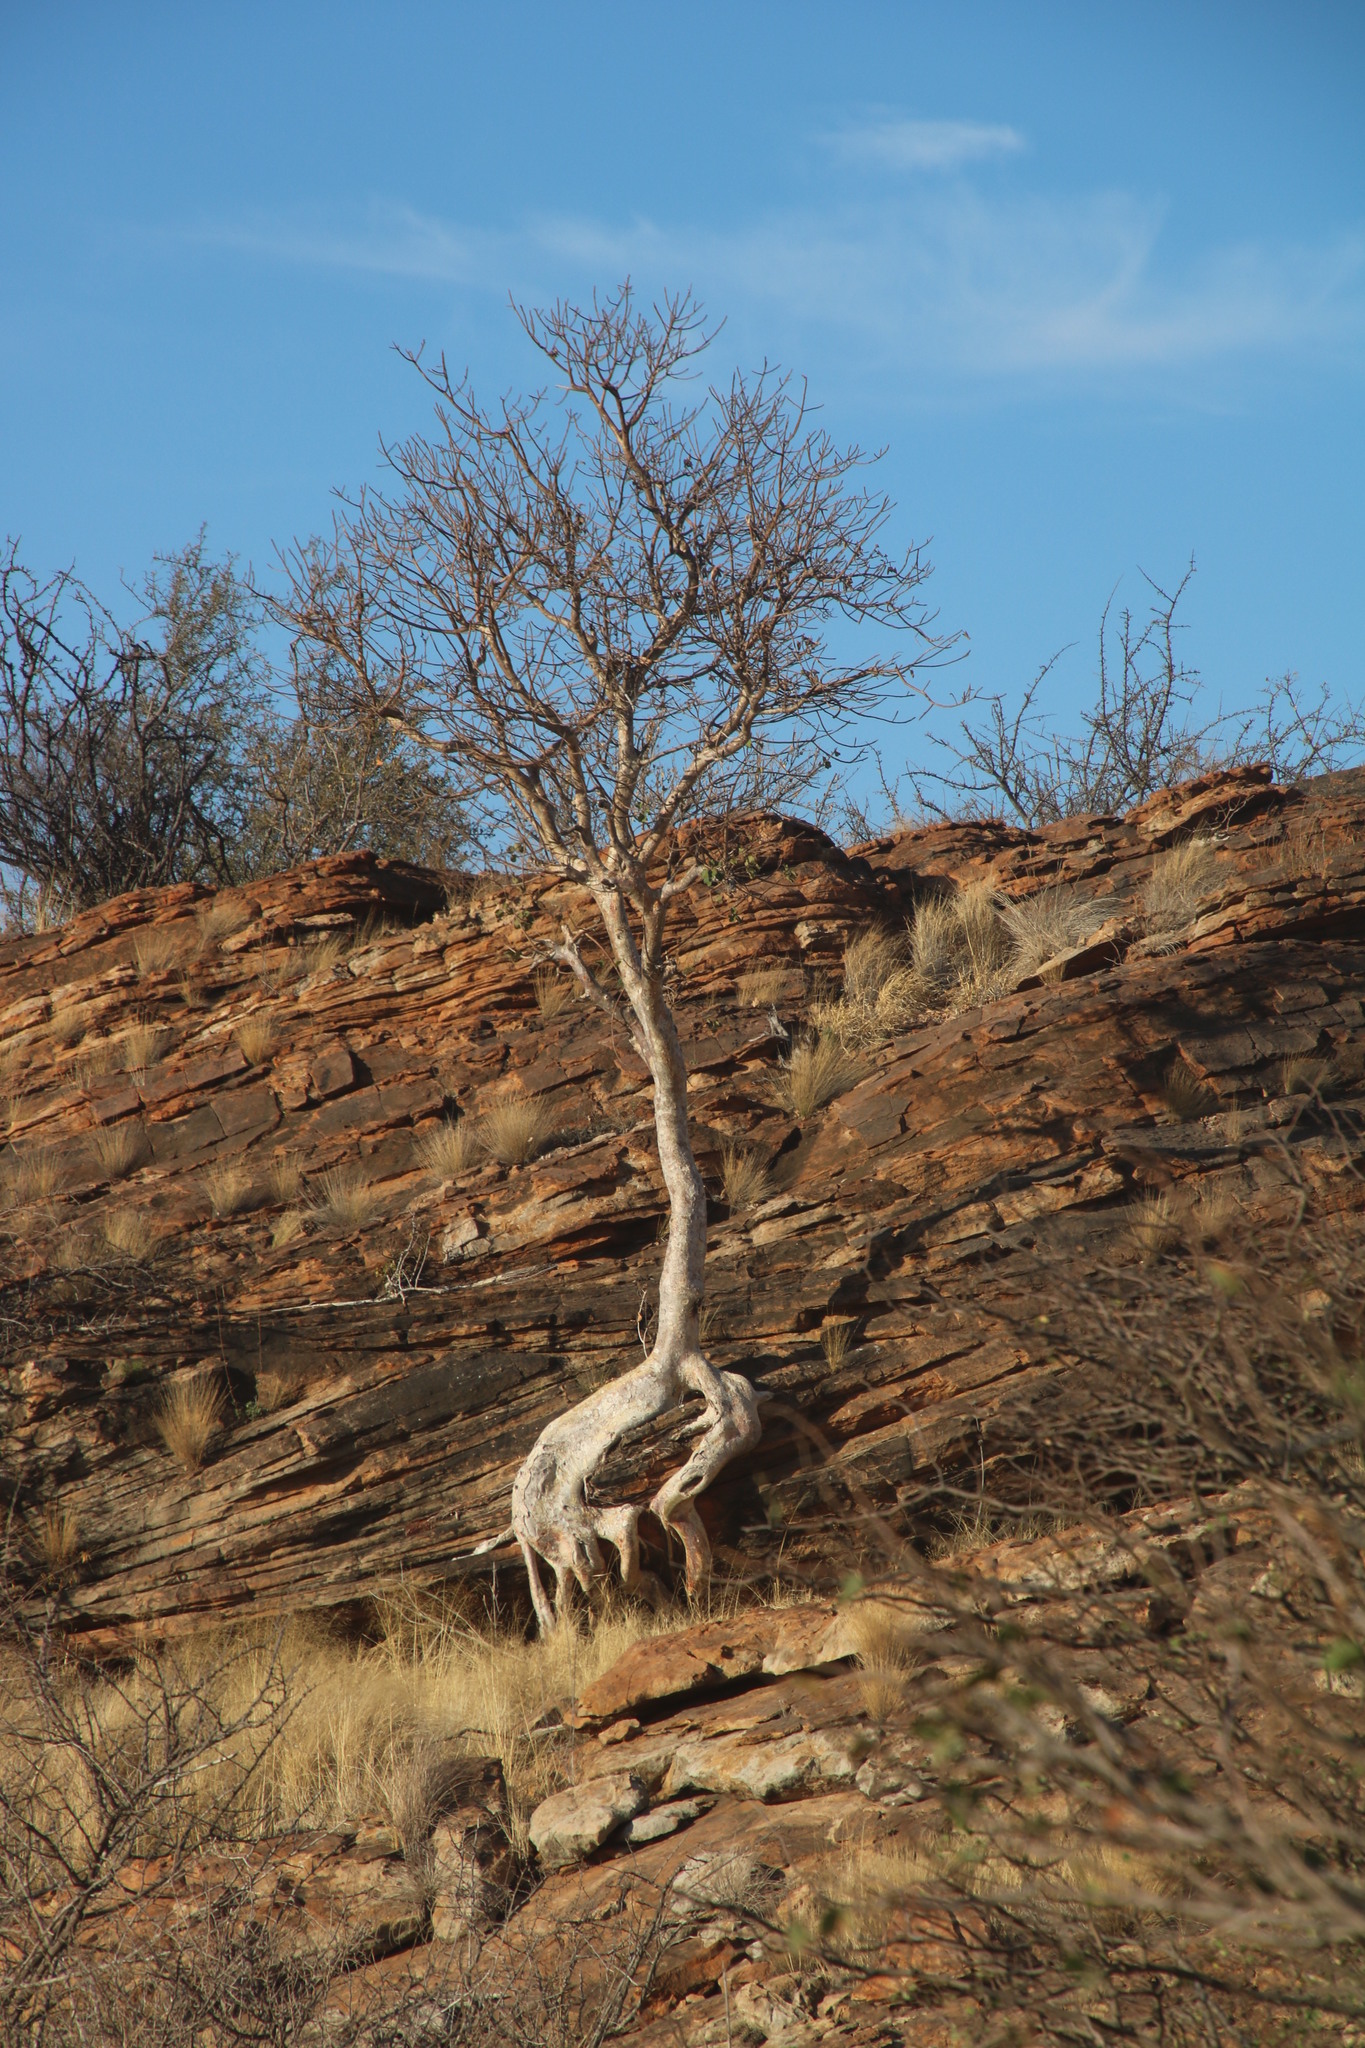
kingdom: Plantae
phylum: Tracheophyta
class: Magnoliopsida
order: Rosales
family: Moraceae
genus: Ficus
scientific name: Ficus tettensis
